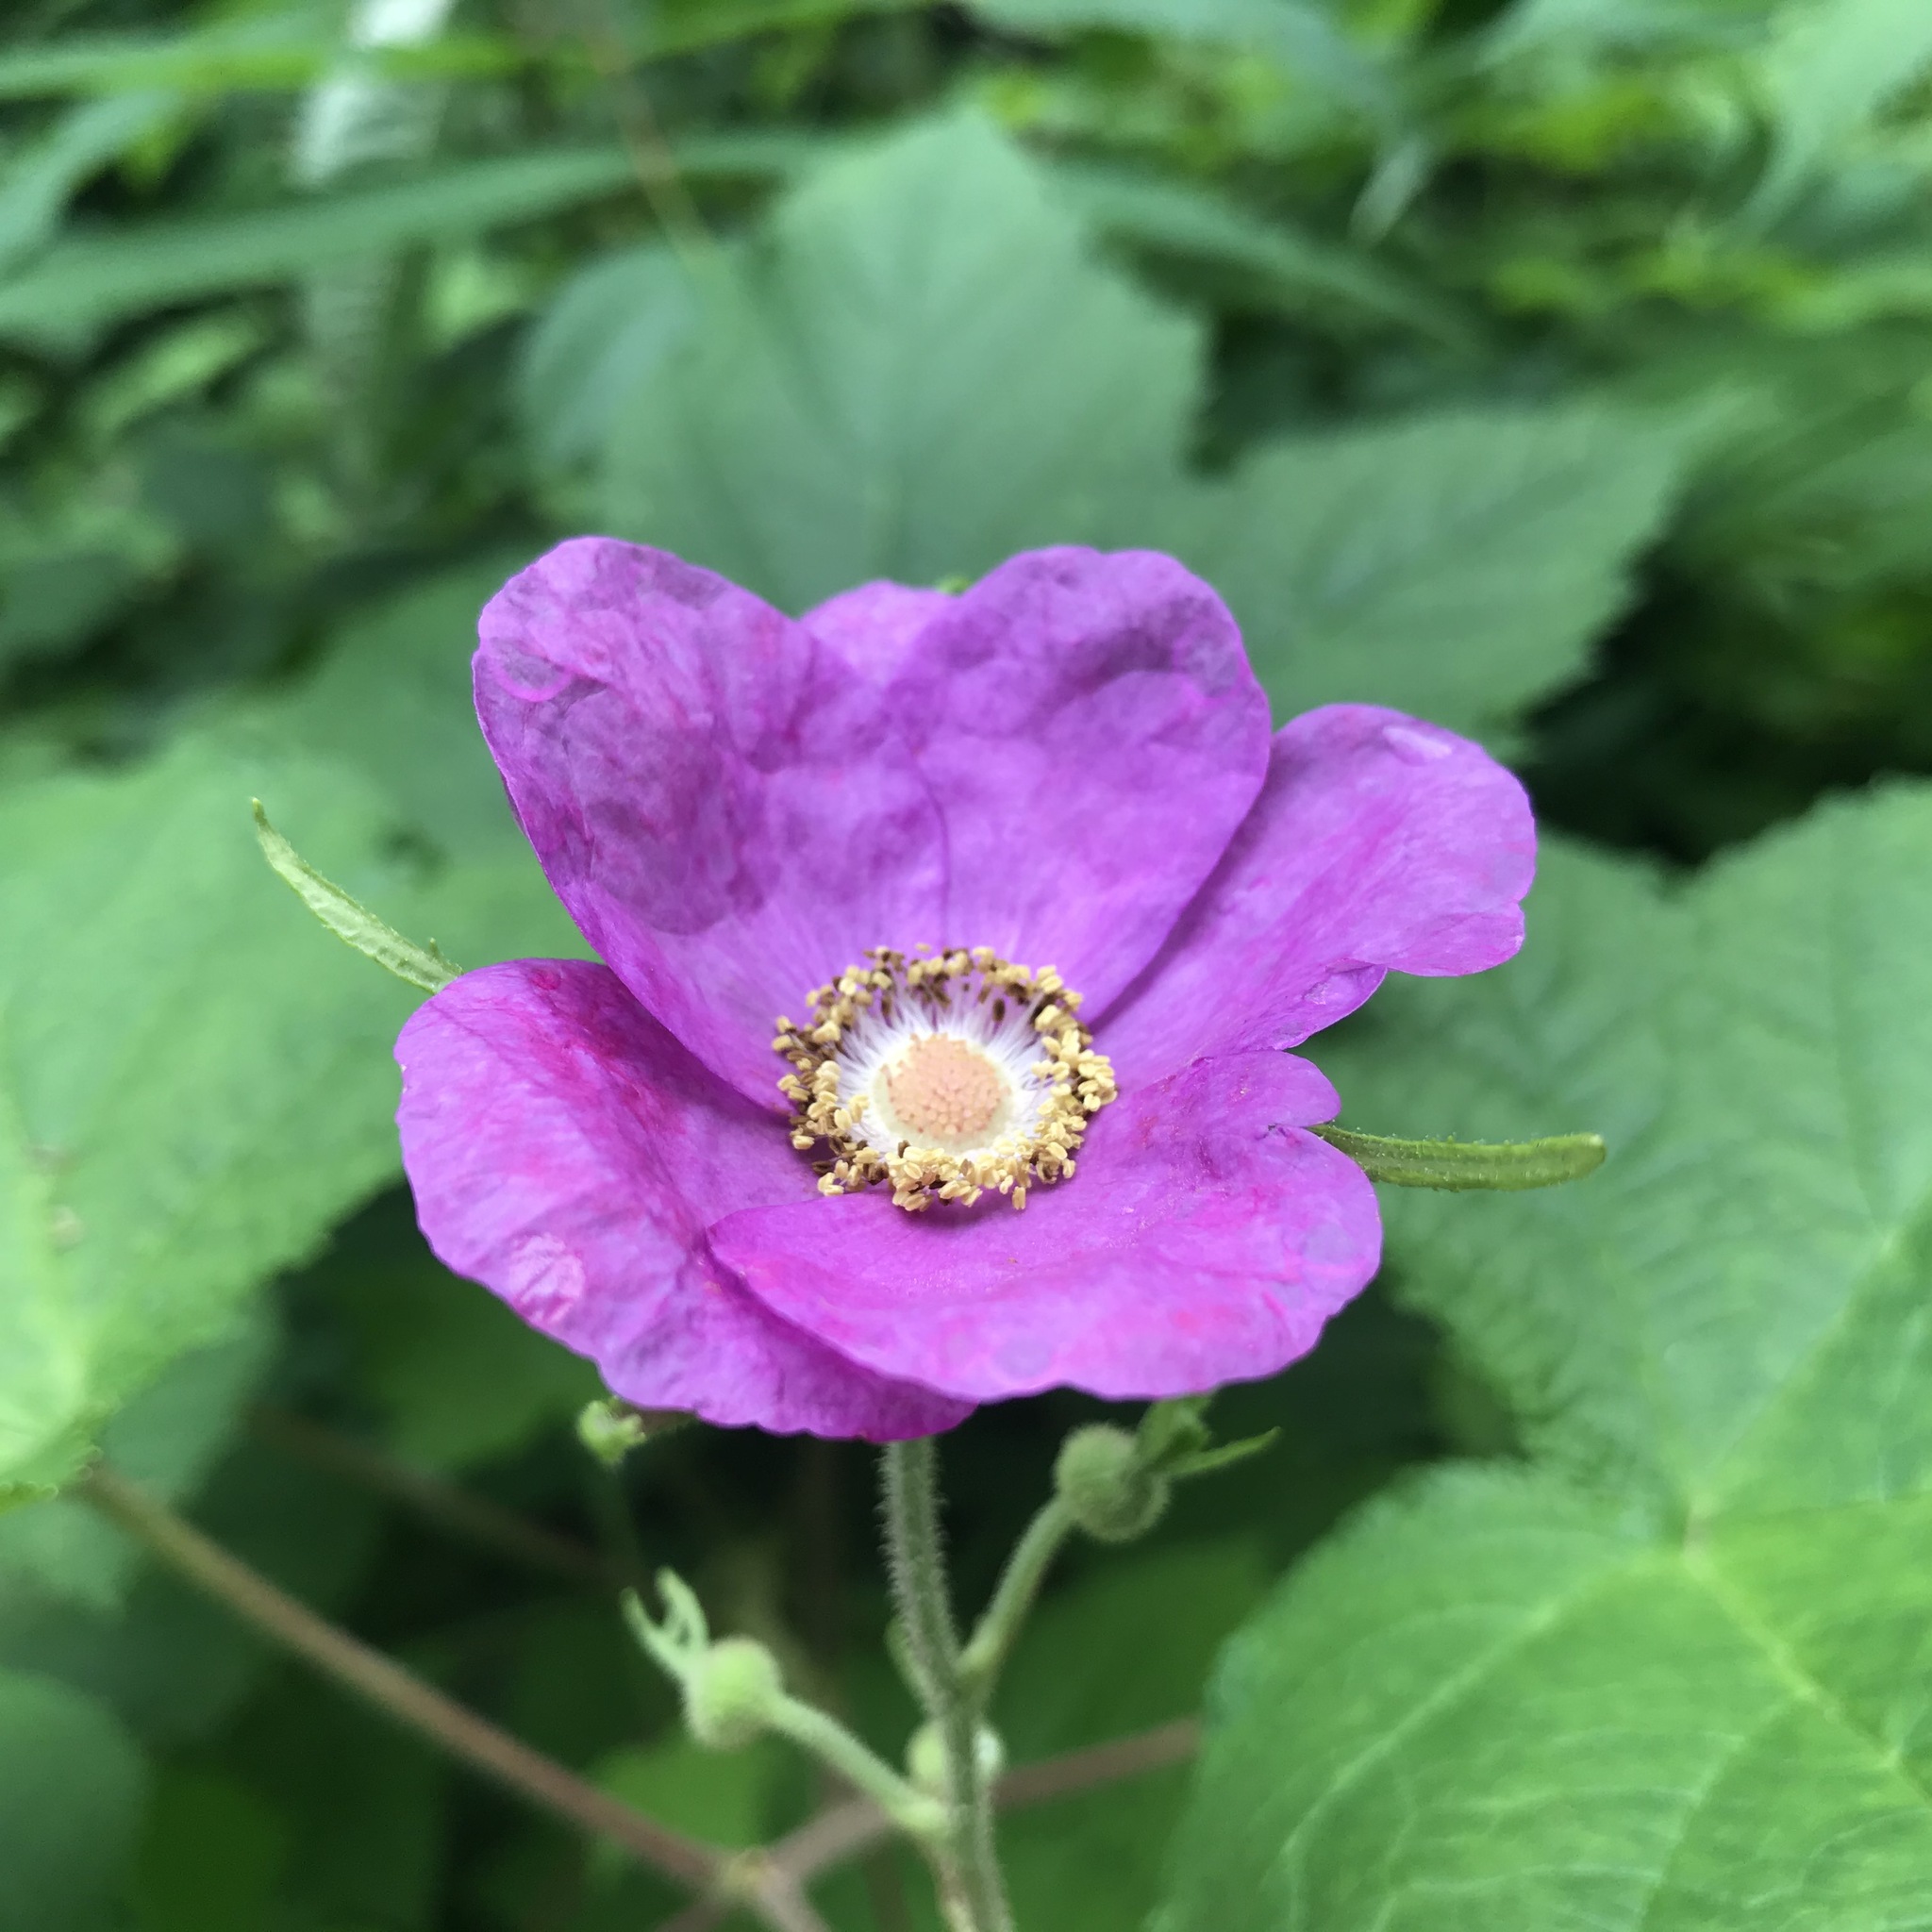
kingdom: Plantae
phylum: Tracheophyta
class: Magnoliopsida
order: Rosales
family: Rosaceae
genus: Rubus
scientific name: Rubus odoratus
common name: Purple-flowered raspberry
